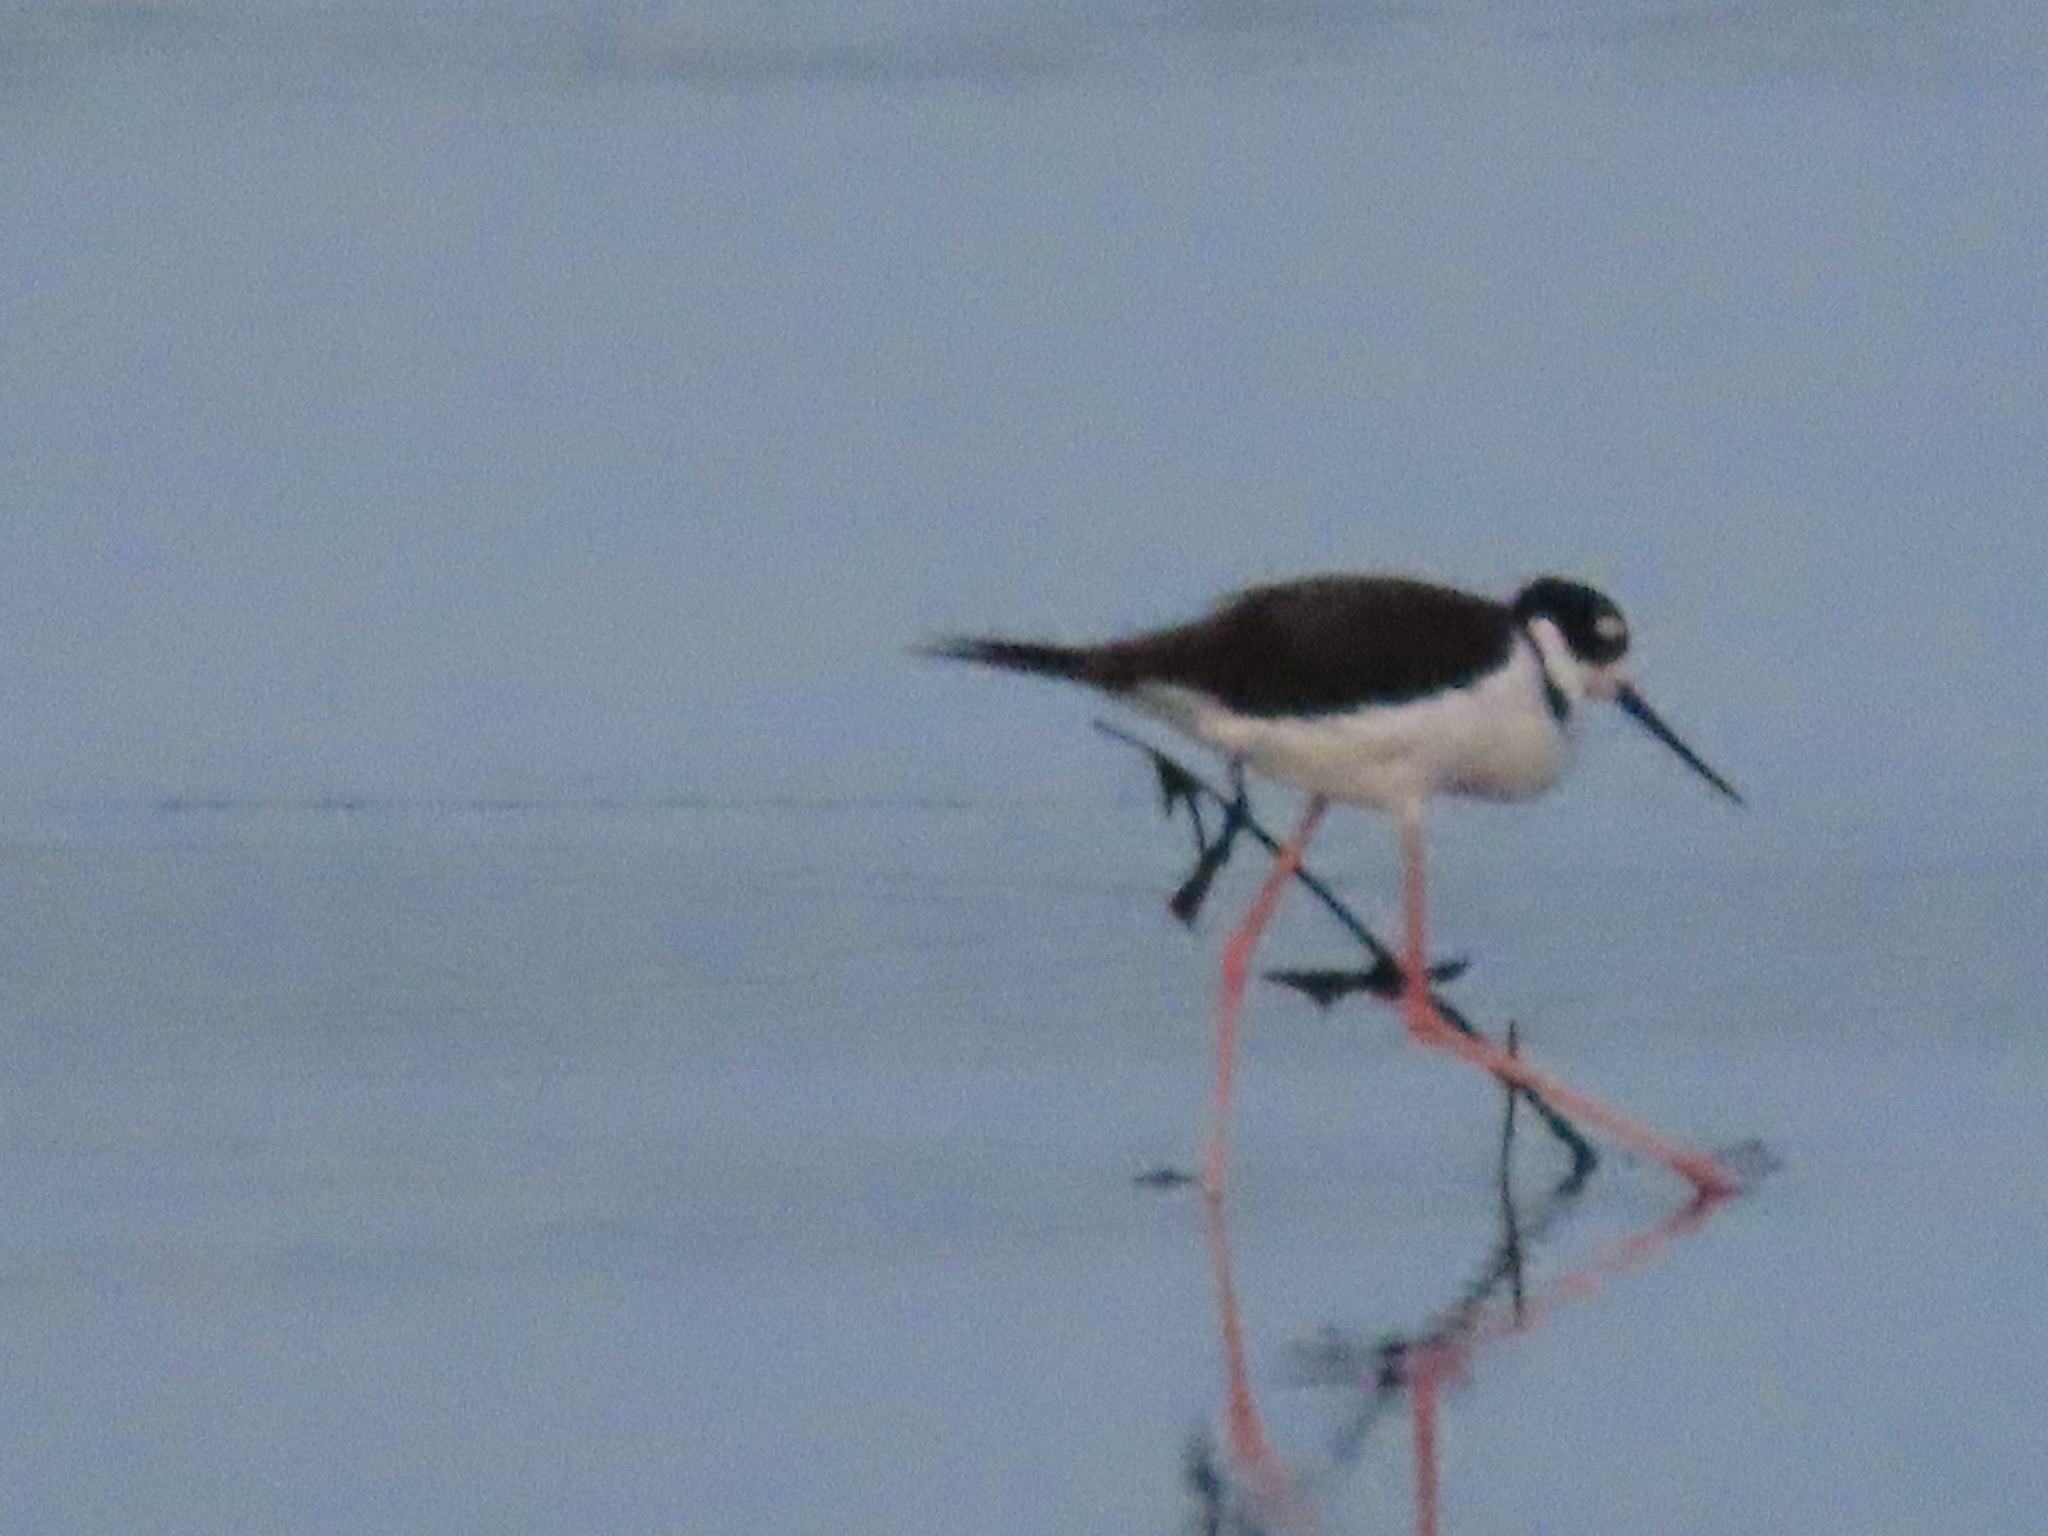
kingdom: Animalia
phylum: Chordata
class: Aves
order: Charadriiformes
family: Recurvirostridae
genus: Himantopus
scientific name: Himantopus mexicanus
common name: Black-necked stilt
